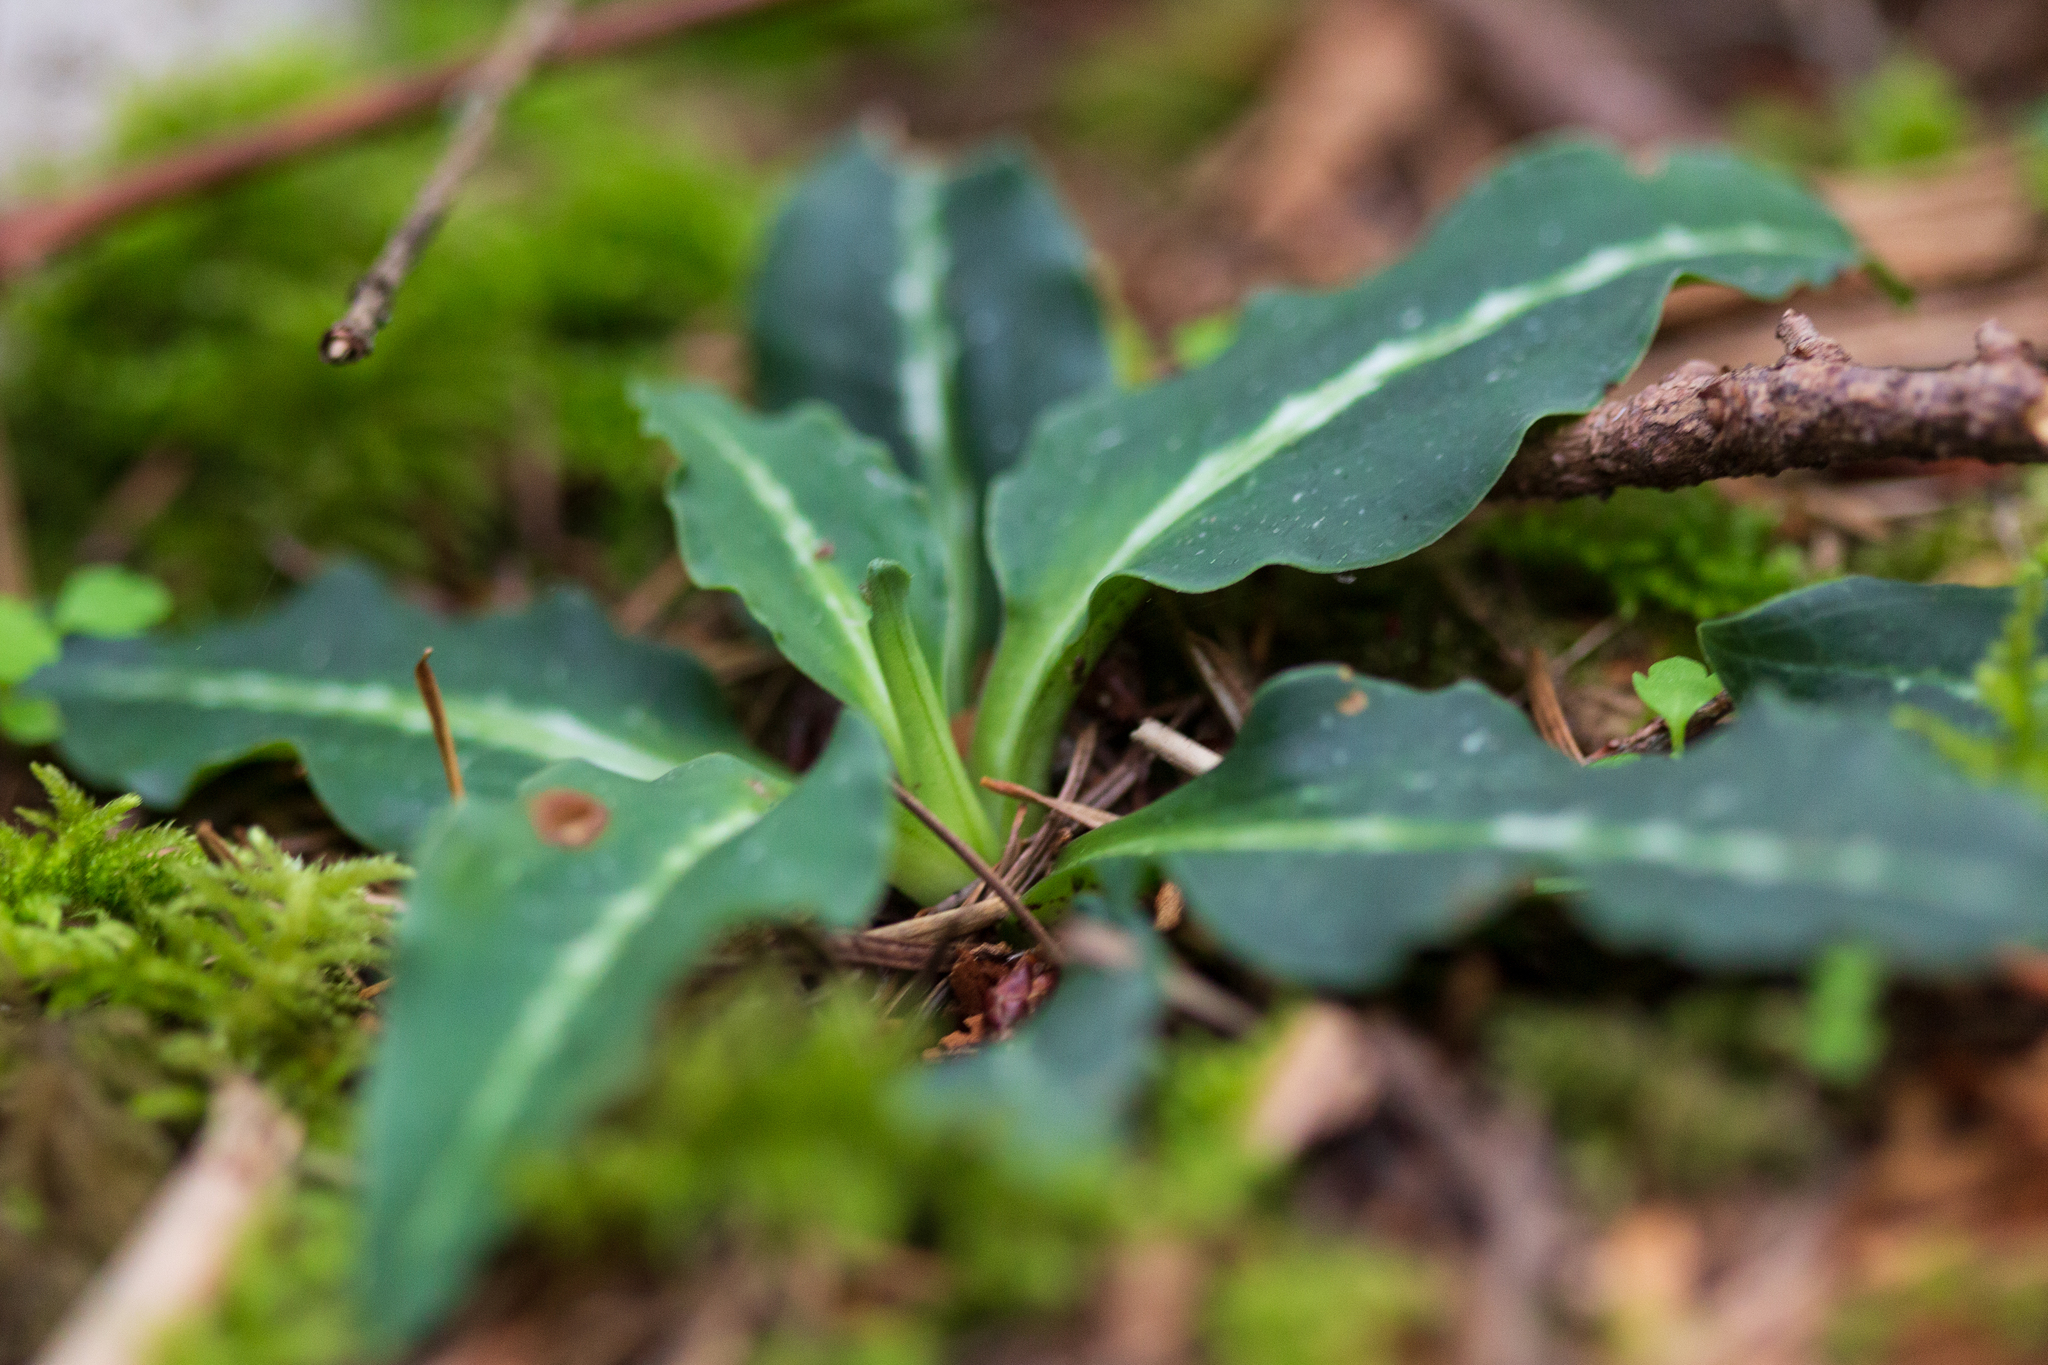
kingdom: Plantae
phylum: Tracheophyta
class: Liliopsida
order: Asparagales
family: Orchidaceae
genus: Goodyera
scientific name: Goodyera oblongifolia
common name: Giant rattlesnake-plantain
